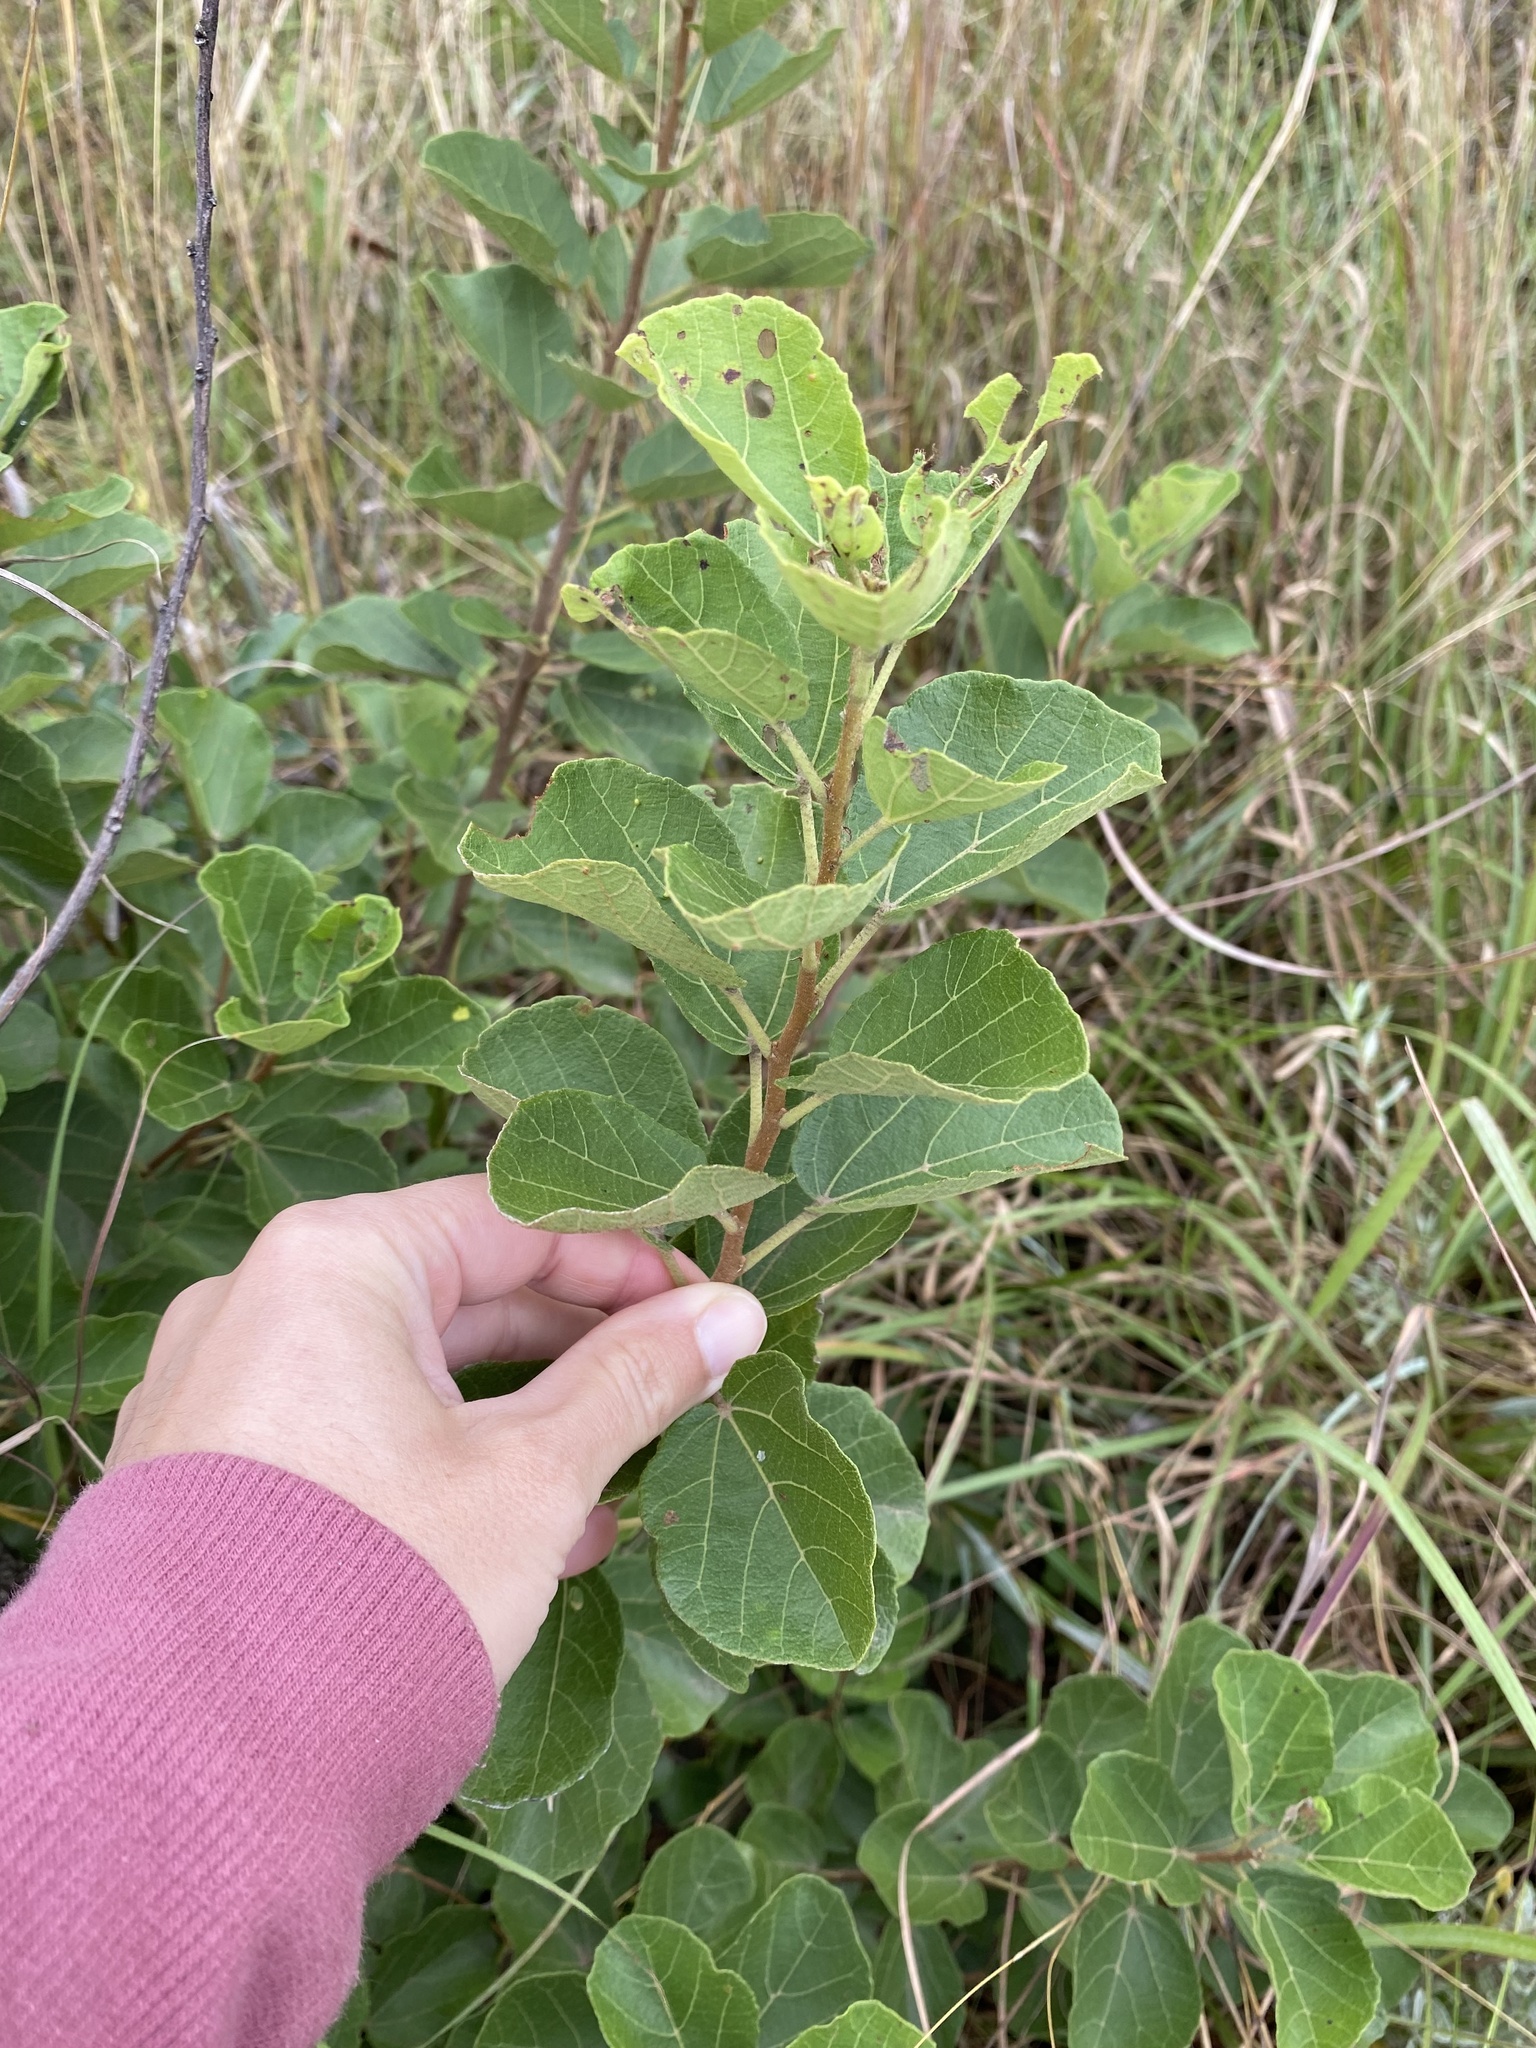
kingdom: Plantae
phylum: Tracheophyta
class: Magnoliopsida
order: Malvales
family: Malvaceae
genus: Dombeya
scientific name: Dombeya rotundifolia
